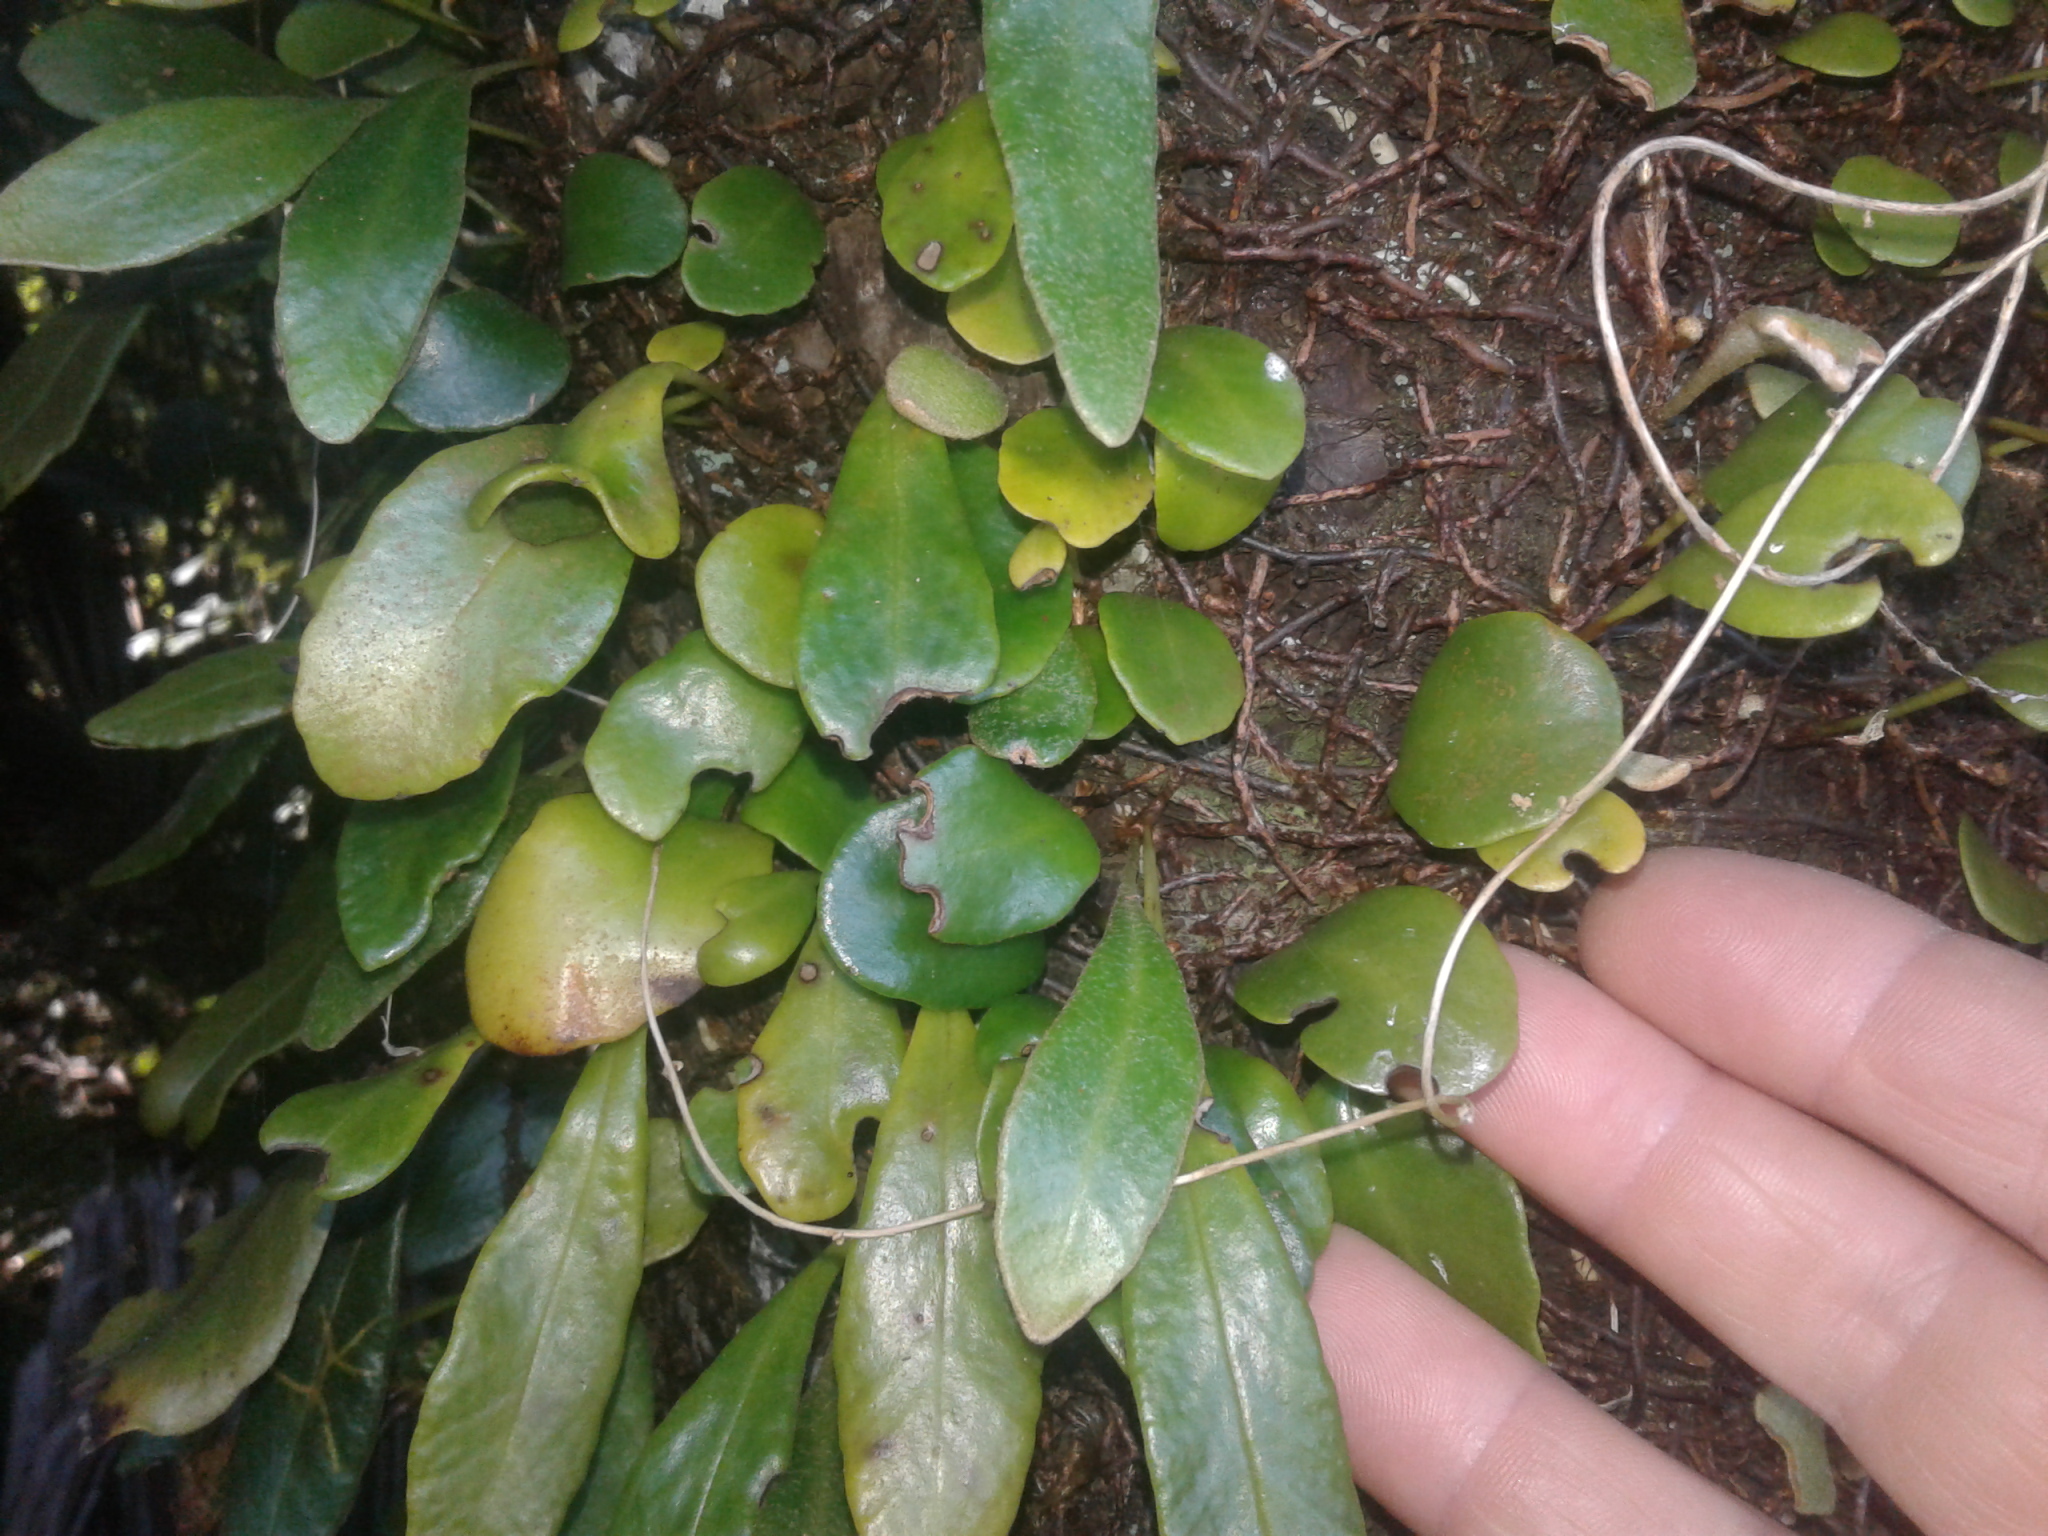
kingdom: Plantae
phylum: Tracheophyta
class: Polypodiopsida
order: Polypodiales
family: Polypodiaceae
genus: Pyrrosia
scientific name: Pyrrosia eleagnifolia
